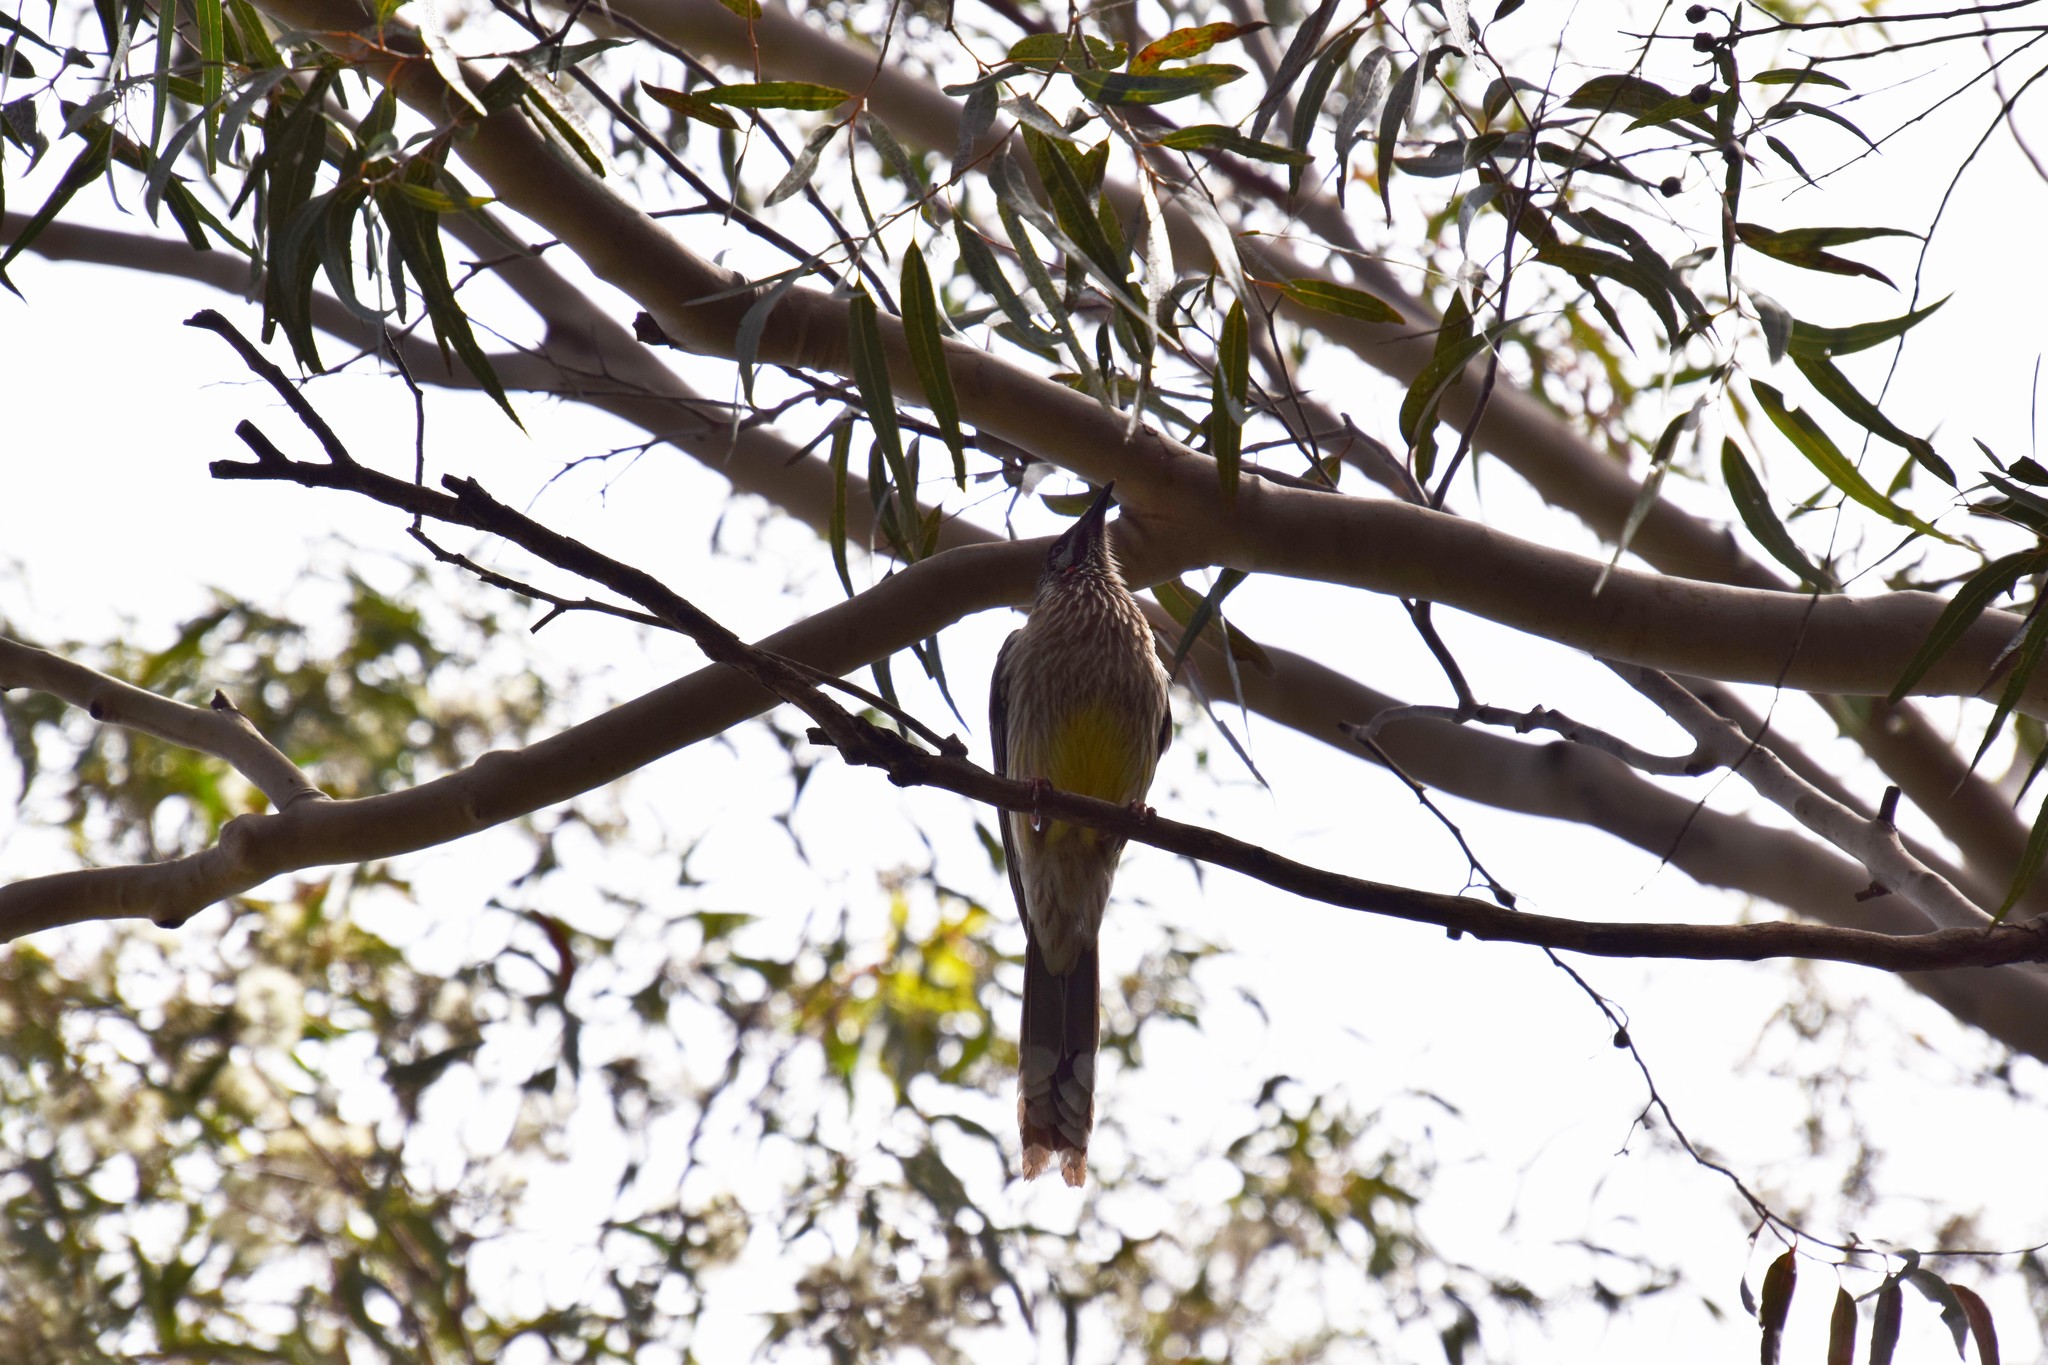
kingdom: Animalia
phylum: Chordata
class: Aves
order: Passeriformes
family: Meliphagidae
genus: Anthochaera
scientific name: Anthochaera carunculata
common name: Red wattlebird
